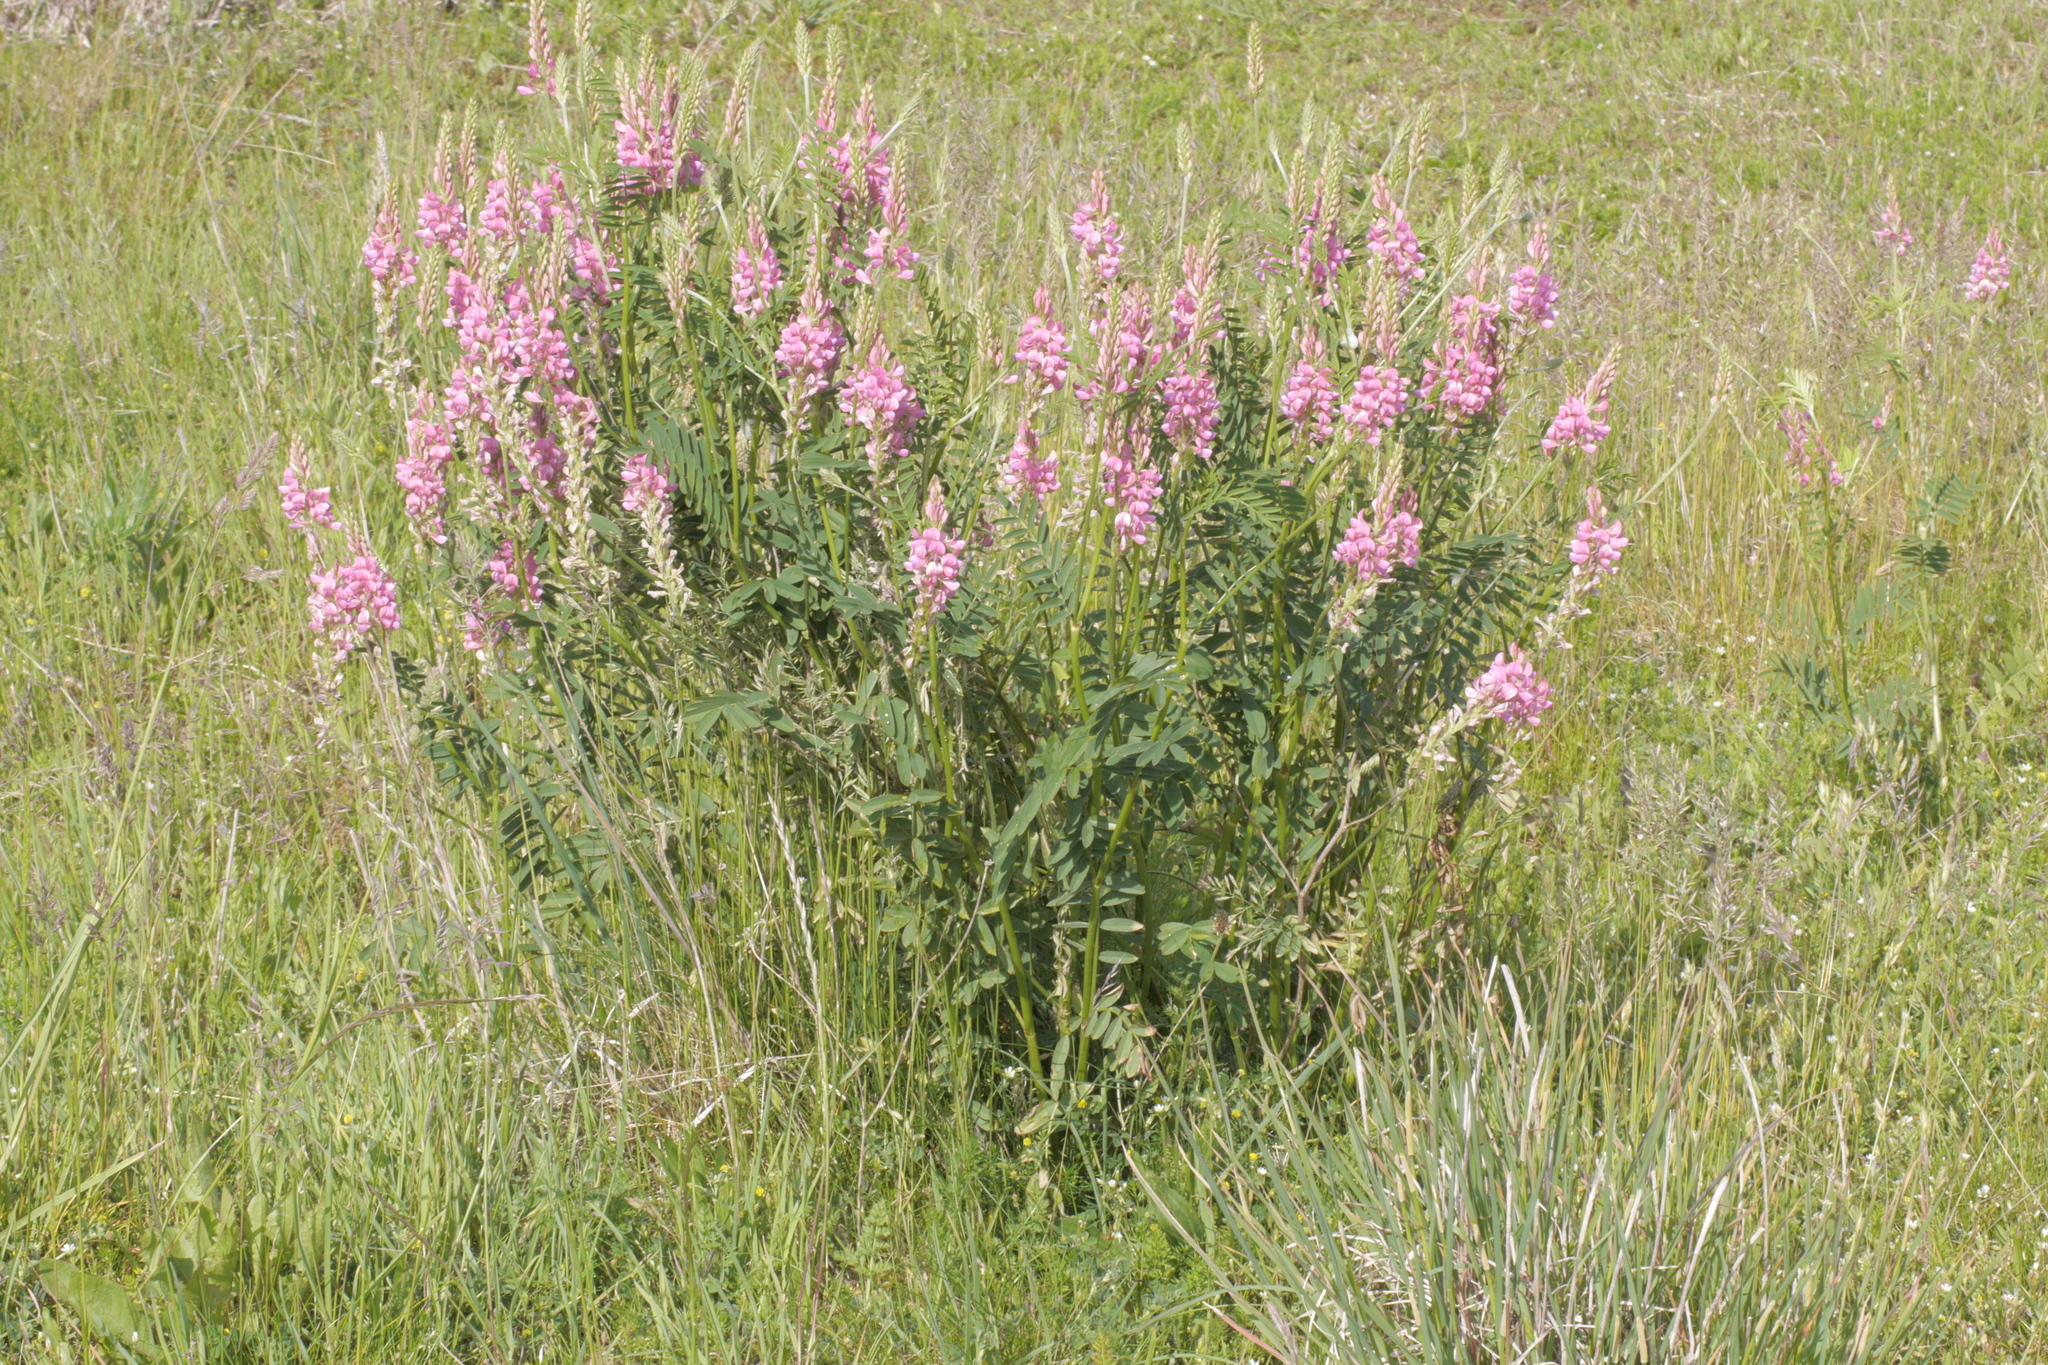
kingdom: Plantae
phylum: Tracheophyta
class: Magnoliopsida
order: Fabales
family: Fabaceae
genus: Onobrychis
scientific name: Onobrychis viciifolia
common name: Sainfoin
